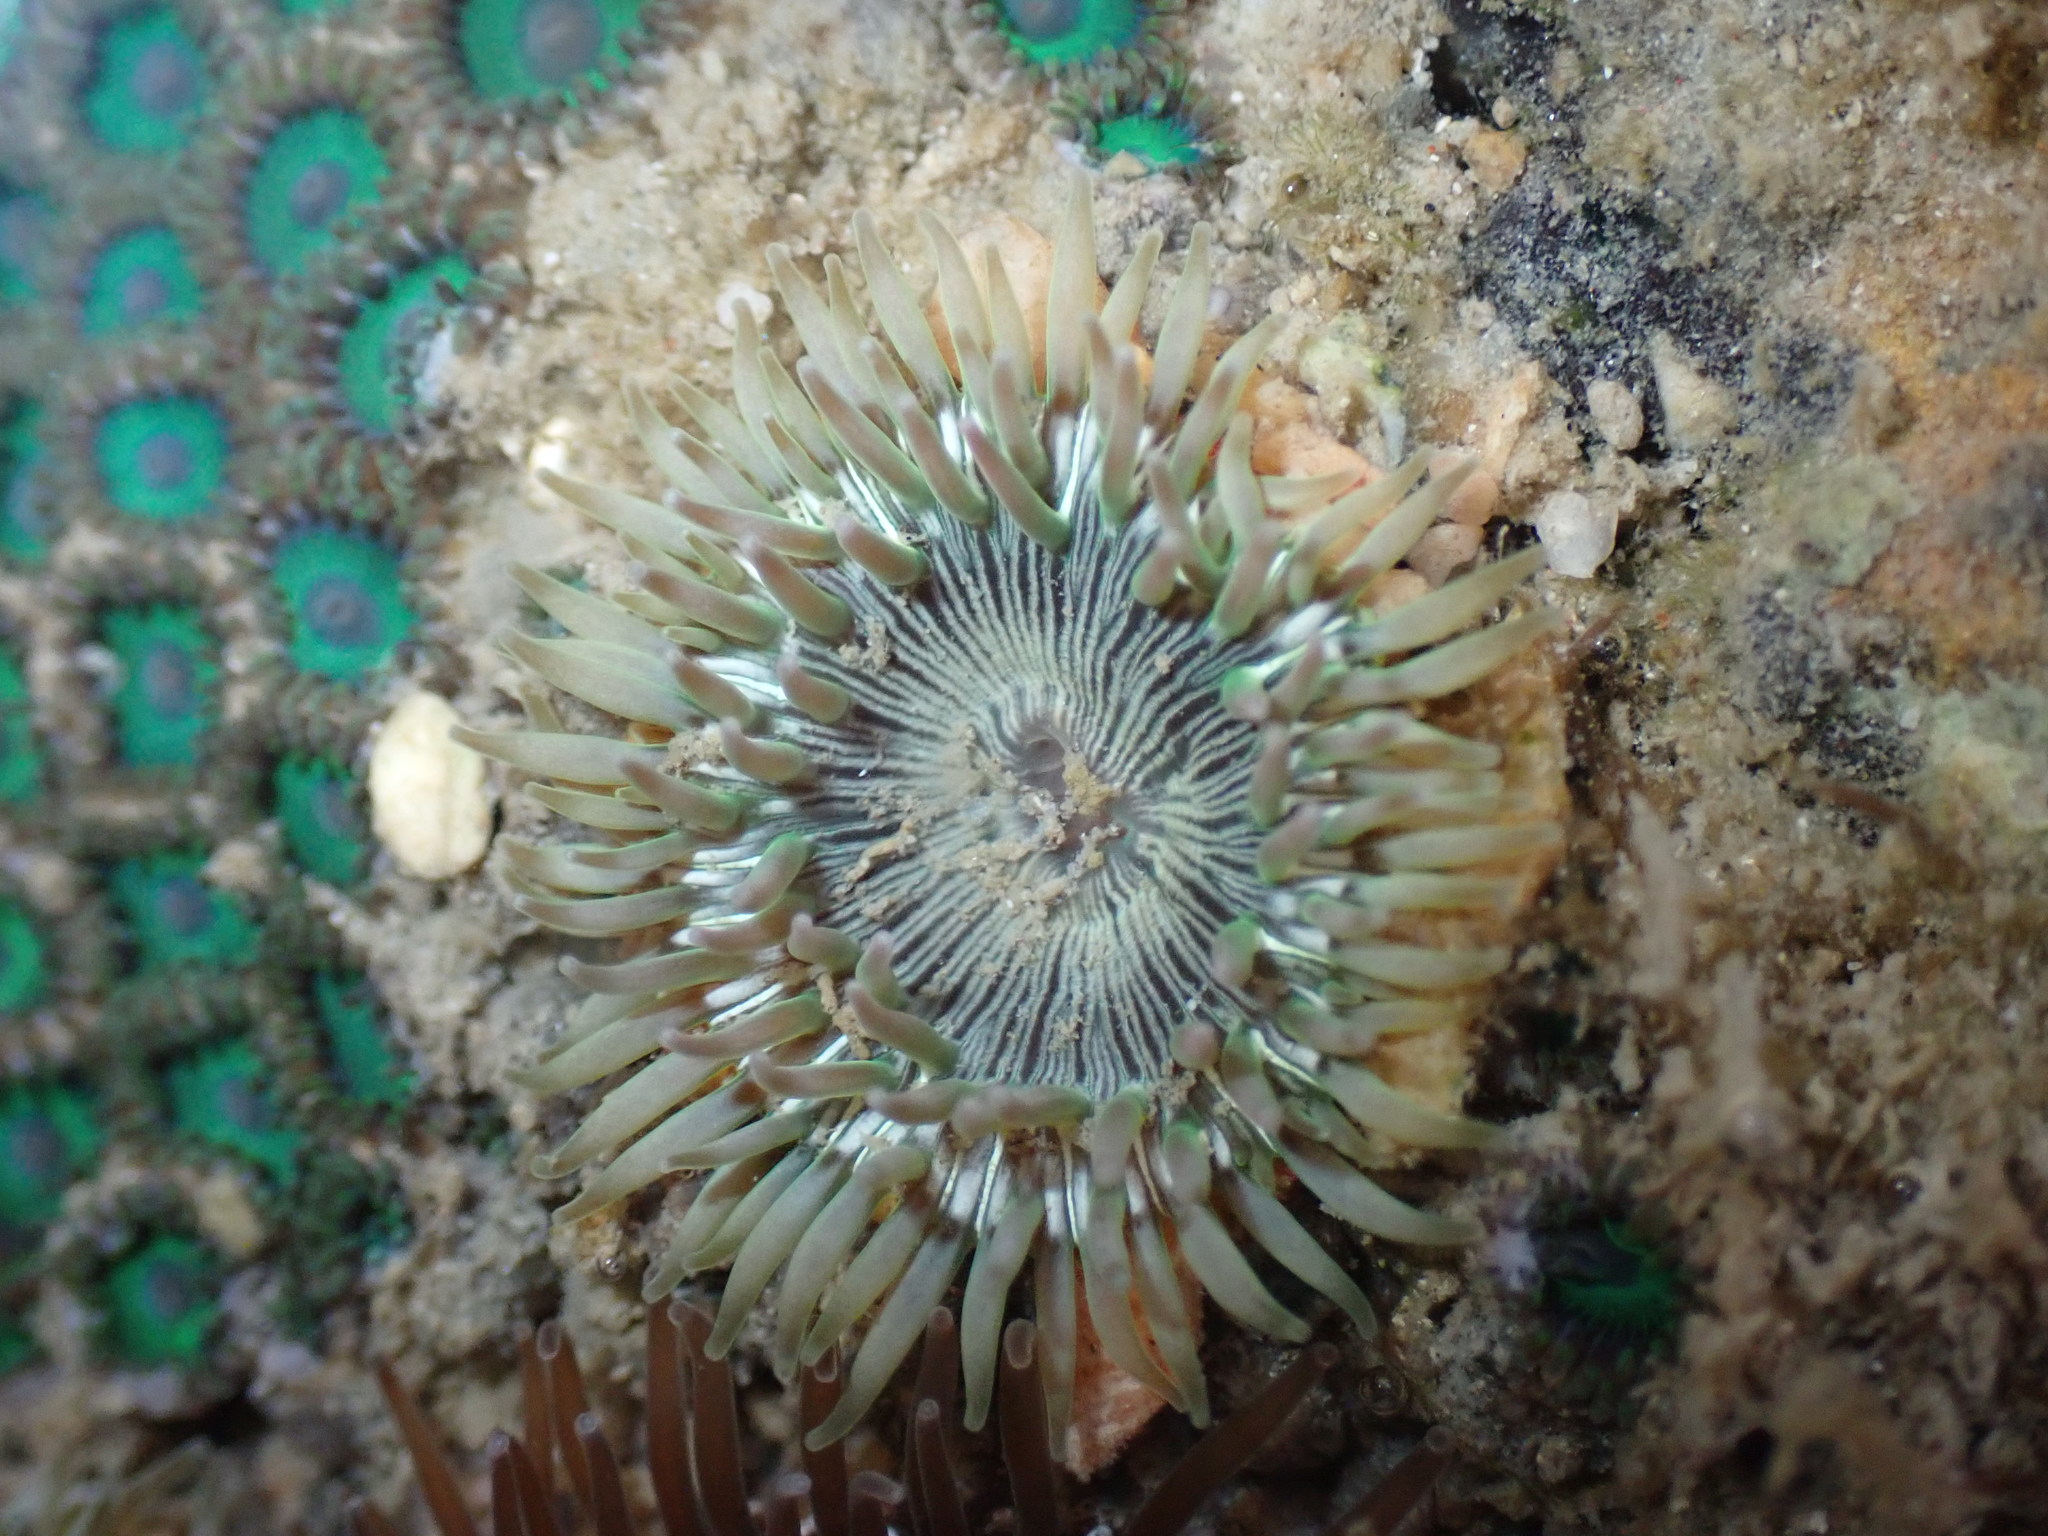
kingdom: Animalia
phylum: Cnidaria
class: Anthozoa
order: Actiniaria
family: Actiniidae
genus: Gyractis
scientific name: Gyractis sesere
